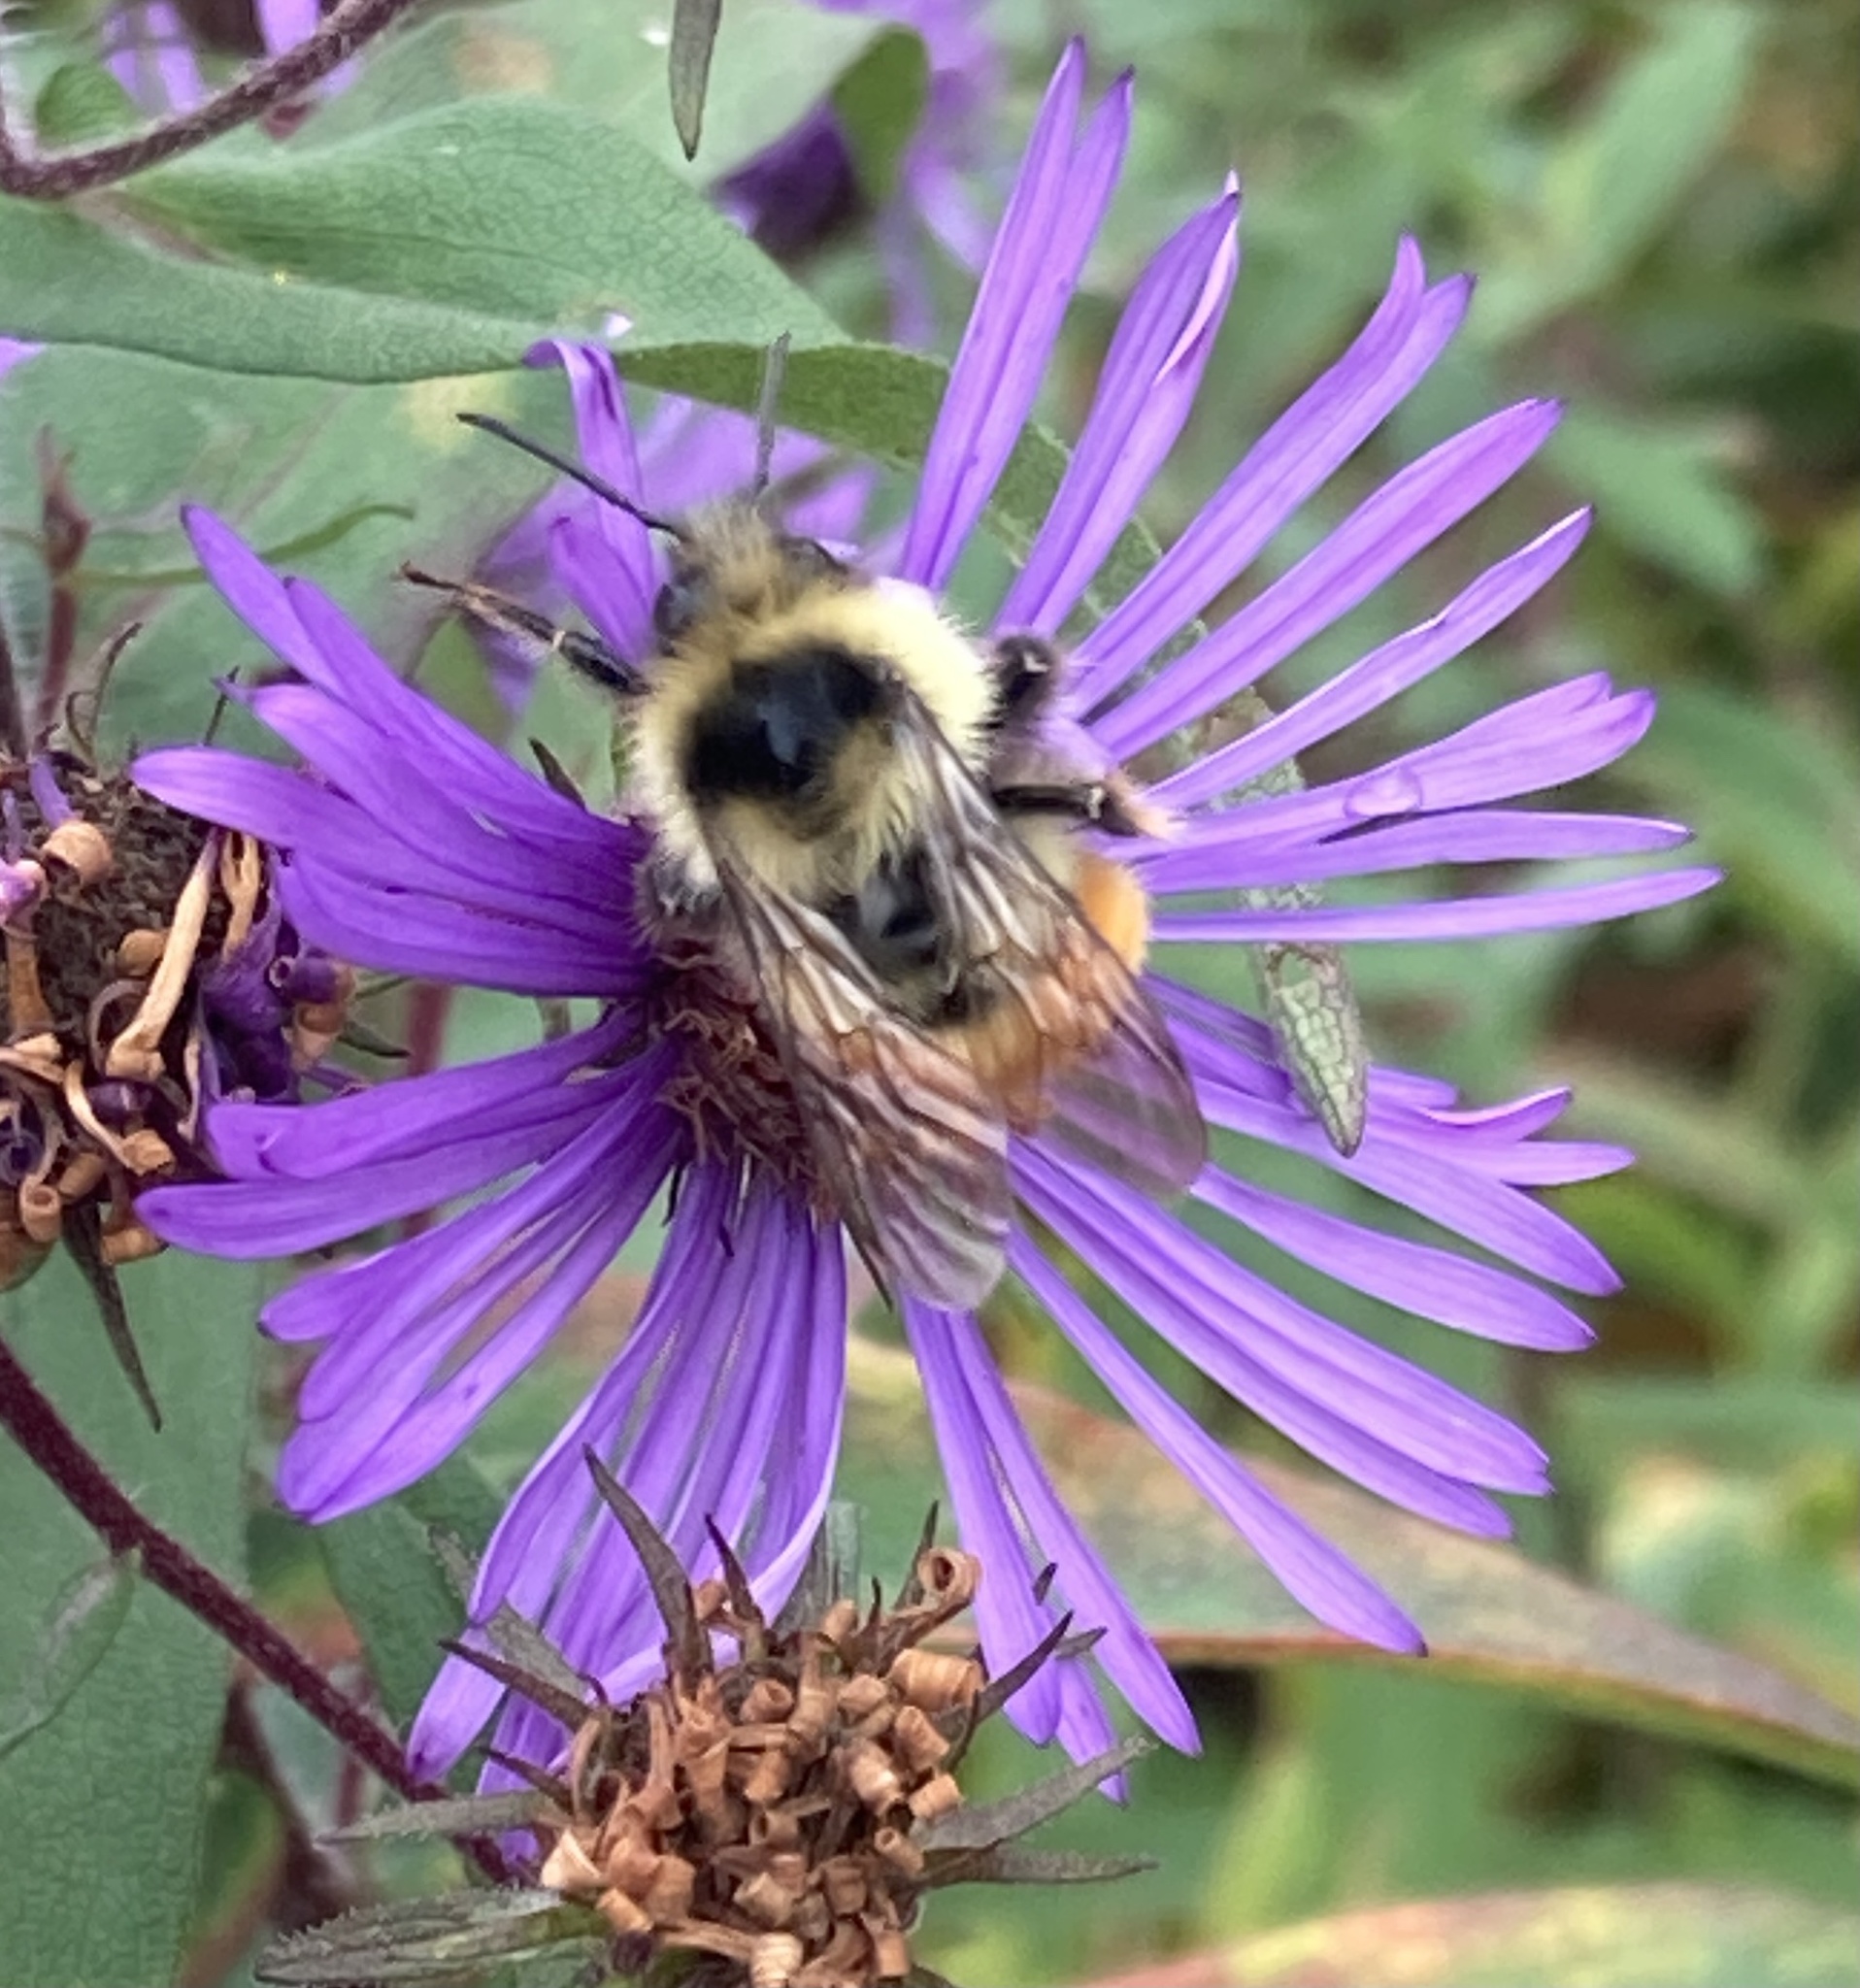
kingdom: Animalia
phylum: Arthropoda
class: Insecta
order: Hymenoptera
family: Apidae
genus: Bombus
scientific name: Bombus ternarius
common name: Tri-colored bumble bee
